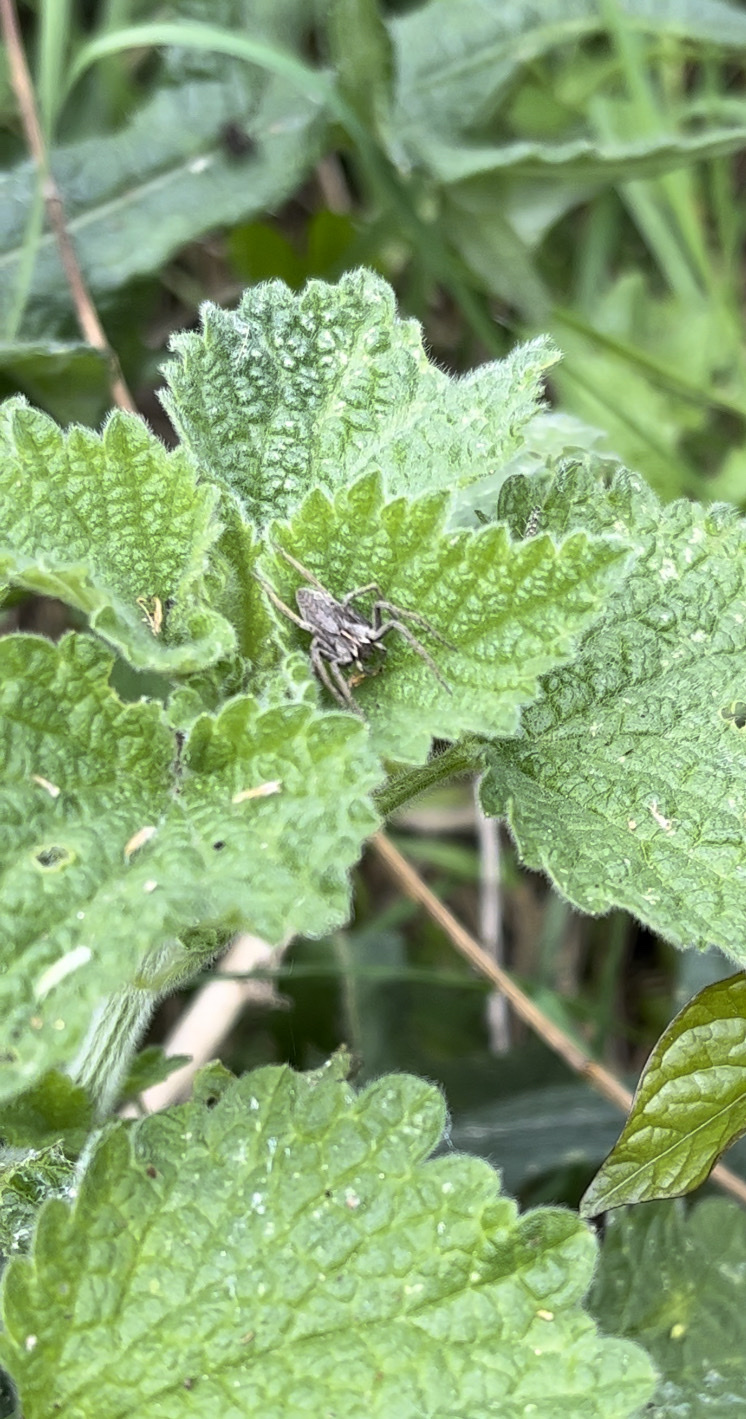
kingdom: Animalia
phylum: Arthropoda
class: Arachnida
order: Araneae
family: Pisauridae
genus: Pisaura
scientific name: Pisaura mirabilis
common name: Tent spider
